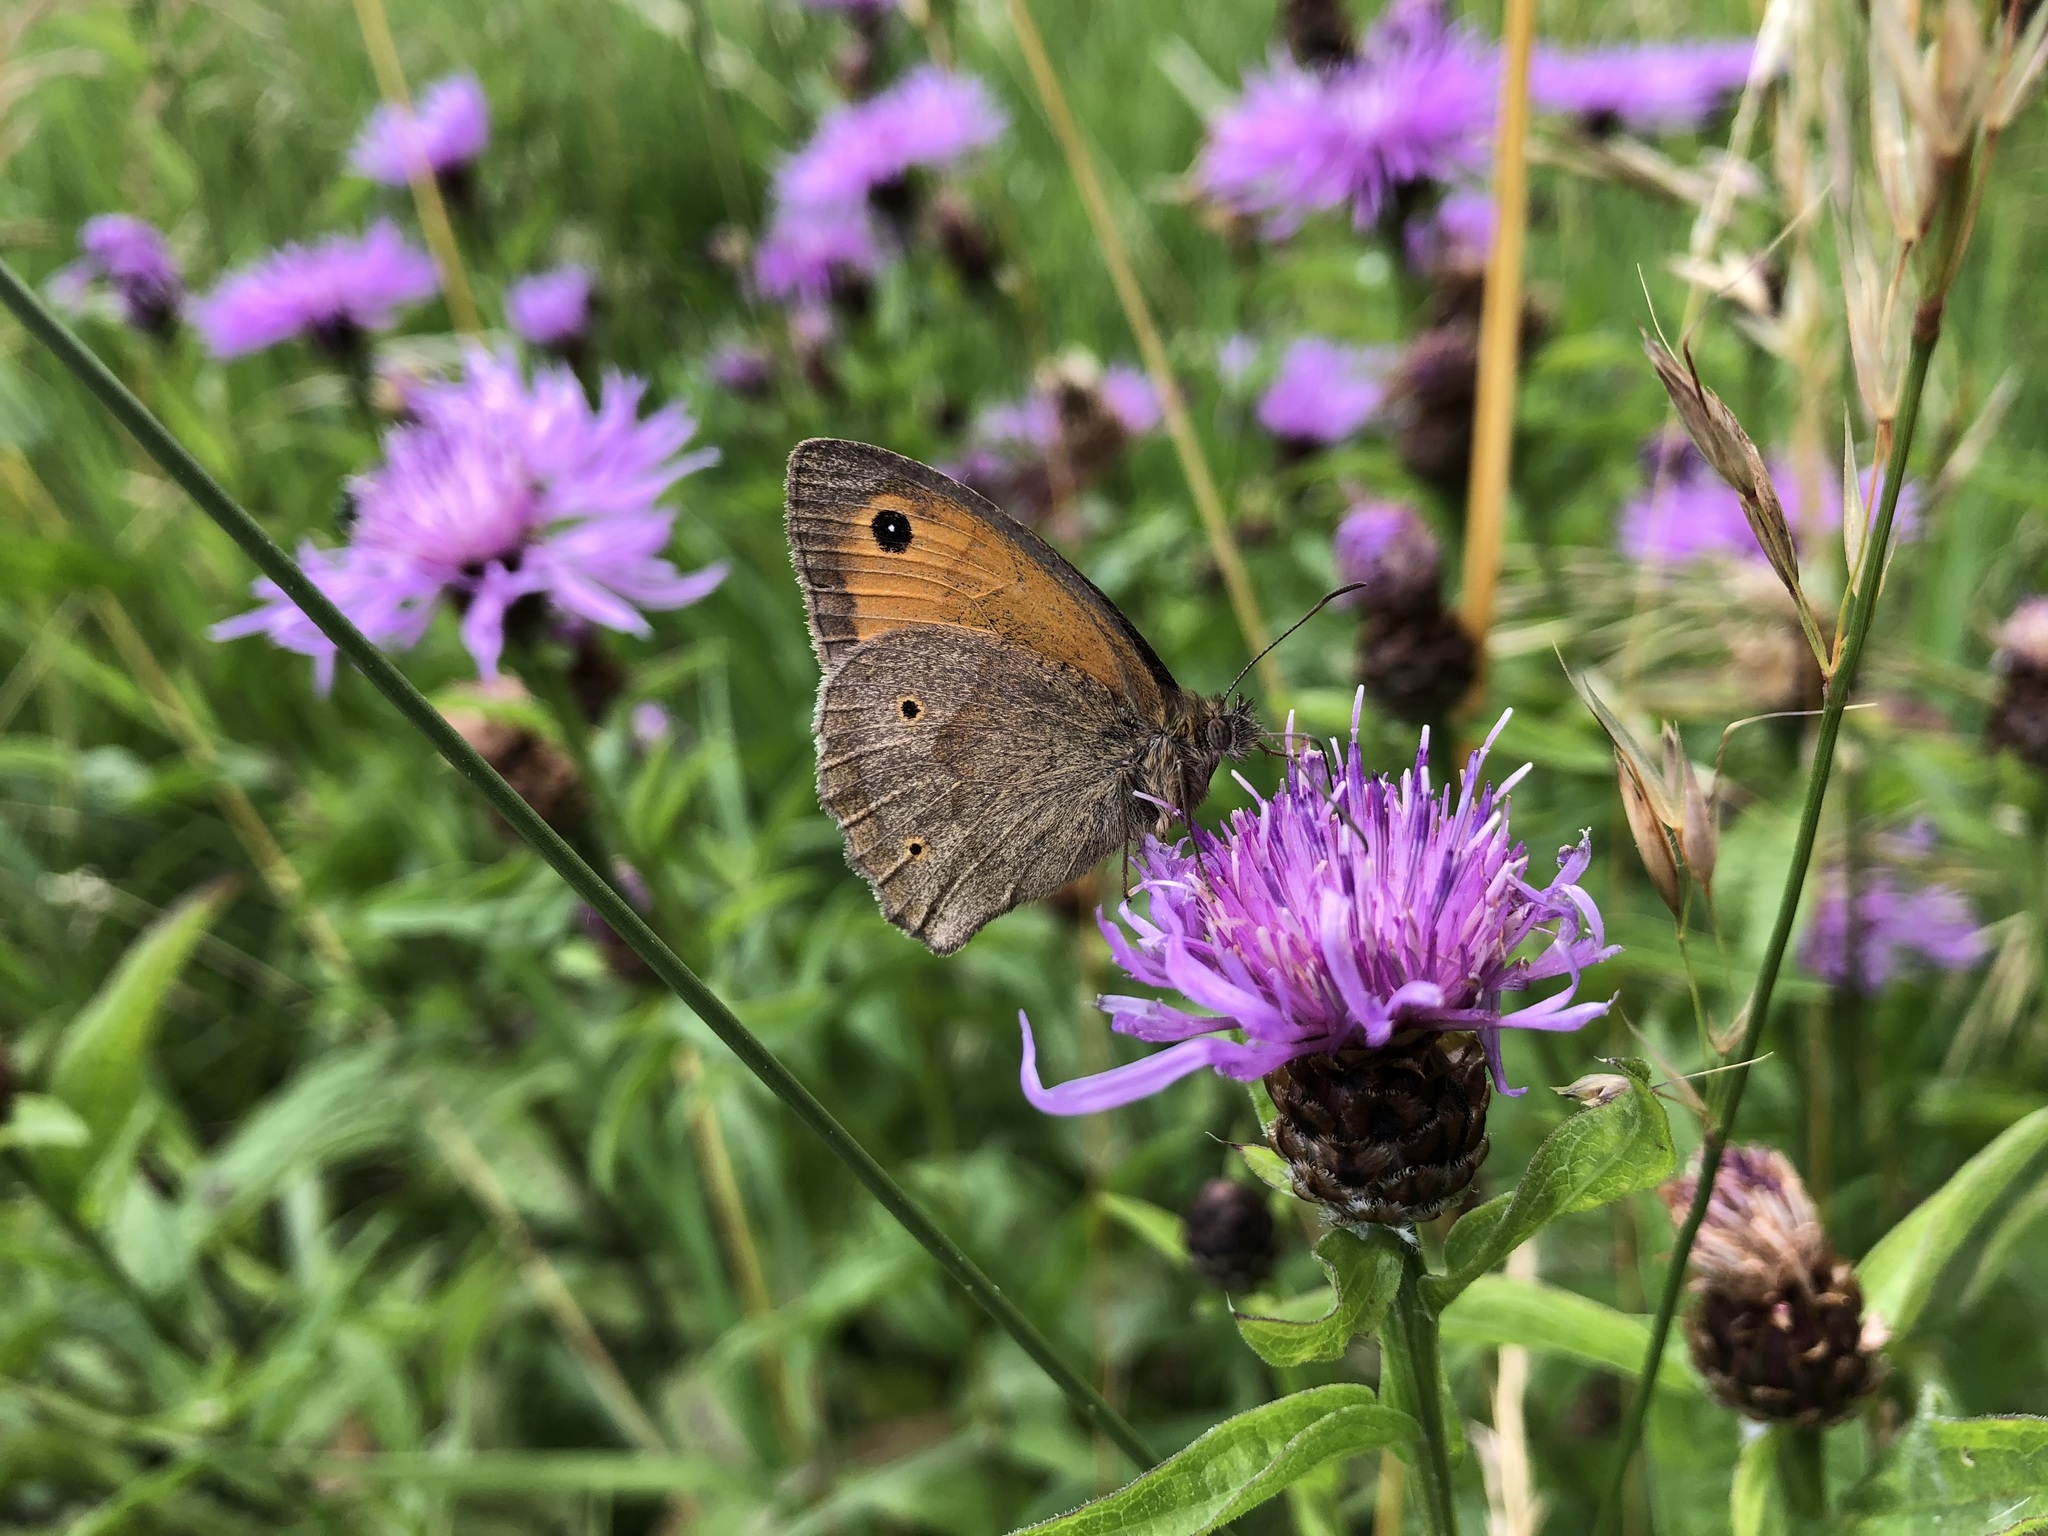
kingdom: Animalia
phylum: Arthropoda
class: Insecta
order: Lepidoptera
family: Nymphalidae
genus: Maniola
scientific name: Maniola jurtina
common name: Meadow brown
